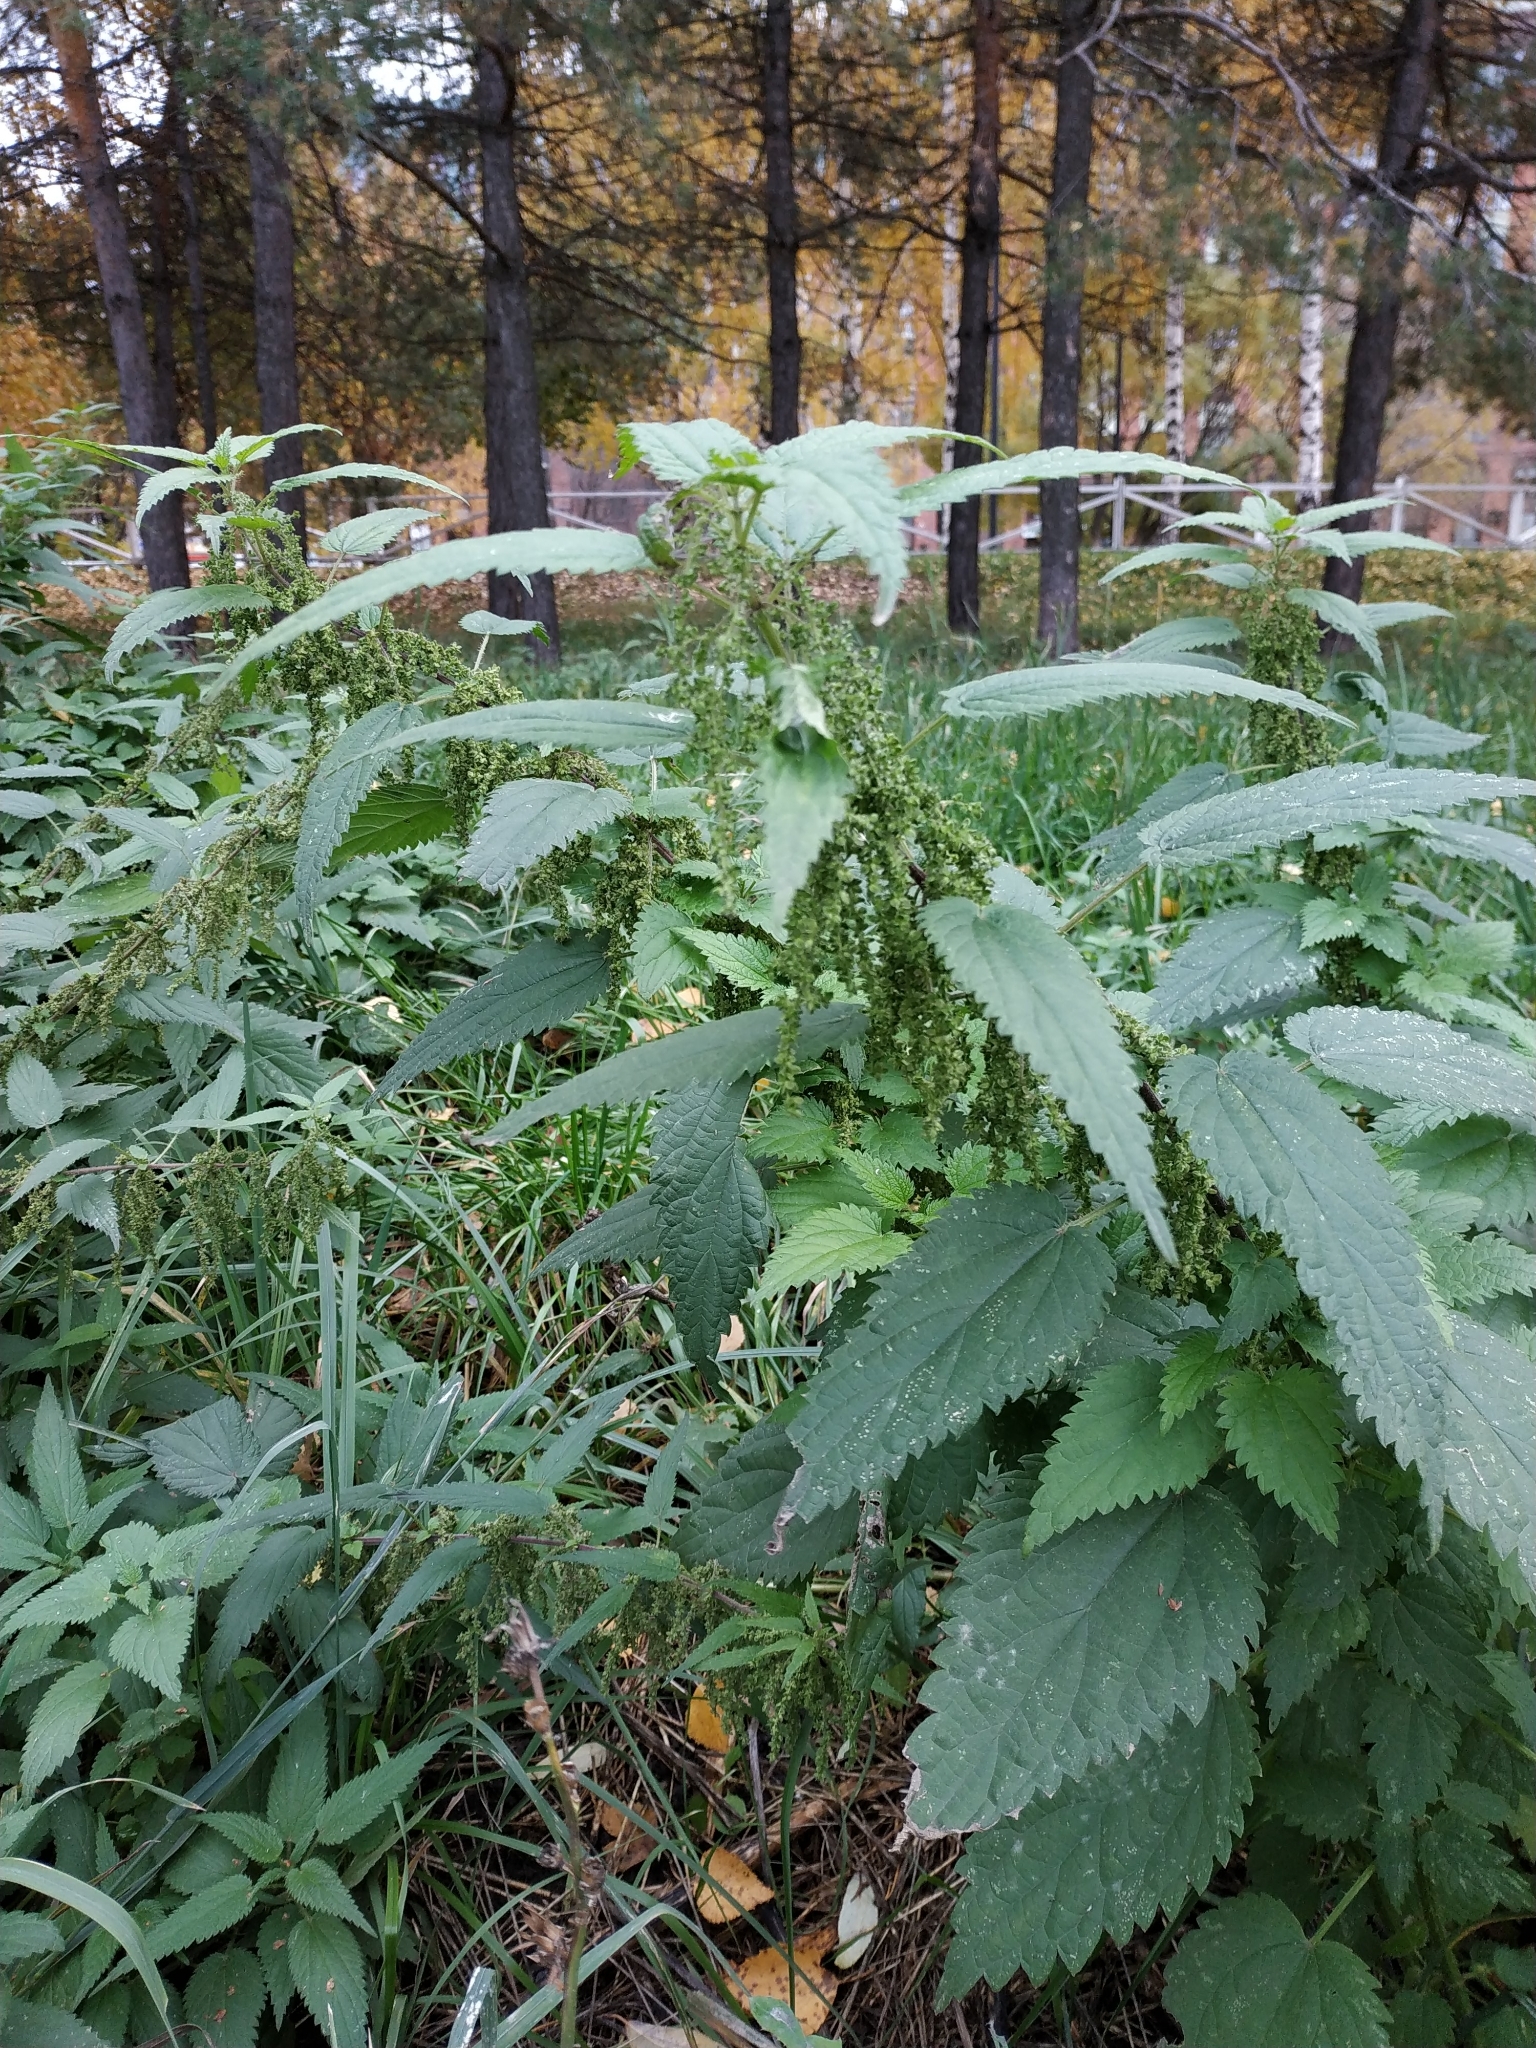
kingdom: Plantae
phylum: Tracheophyta
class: Magnoliopsida
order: Rosales
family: Urticaceae
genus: Urtica
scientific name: Urtica dioica
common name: Common nettle
